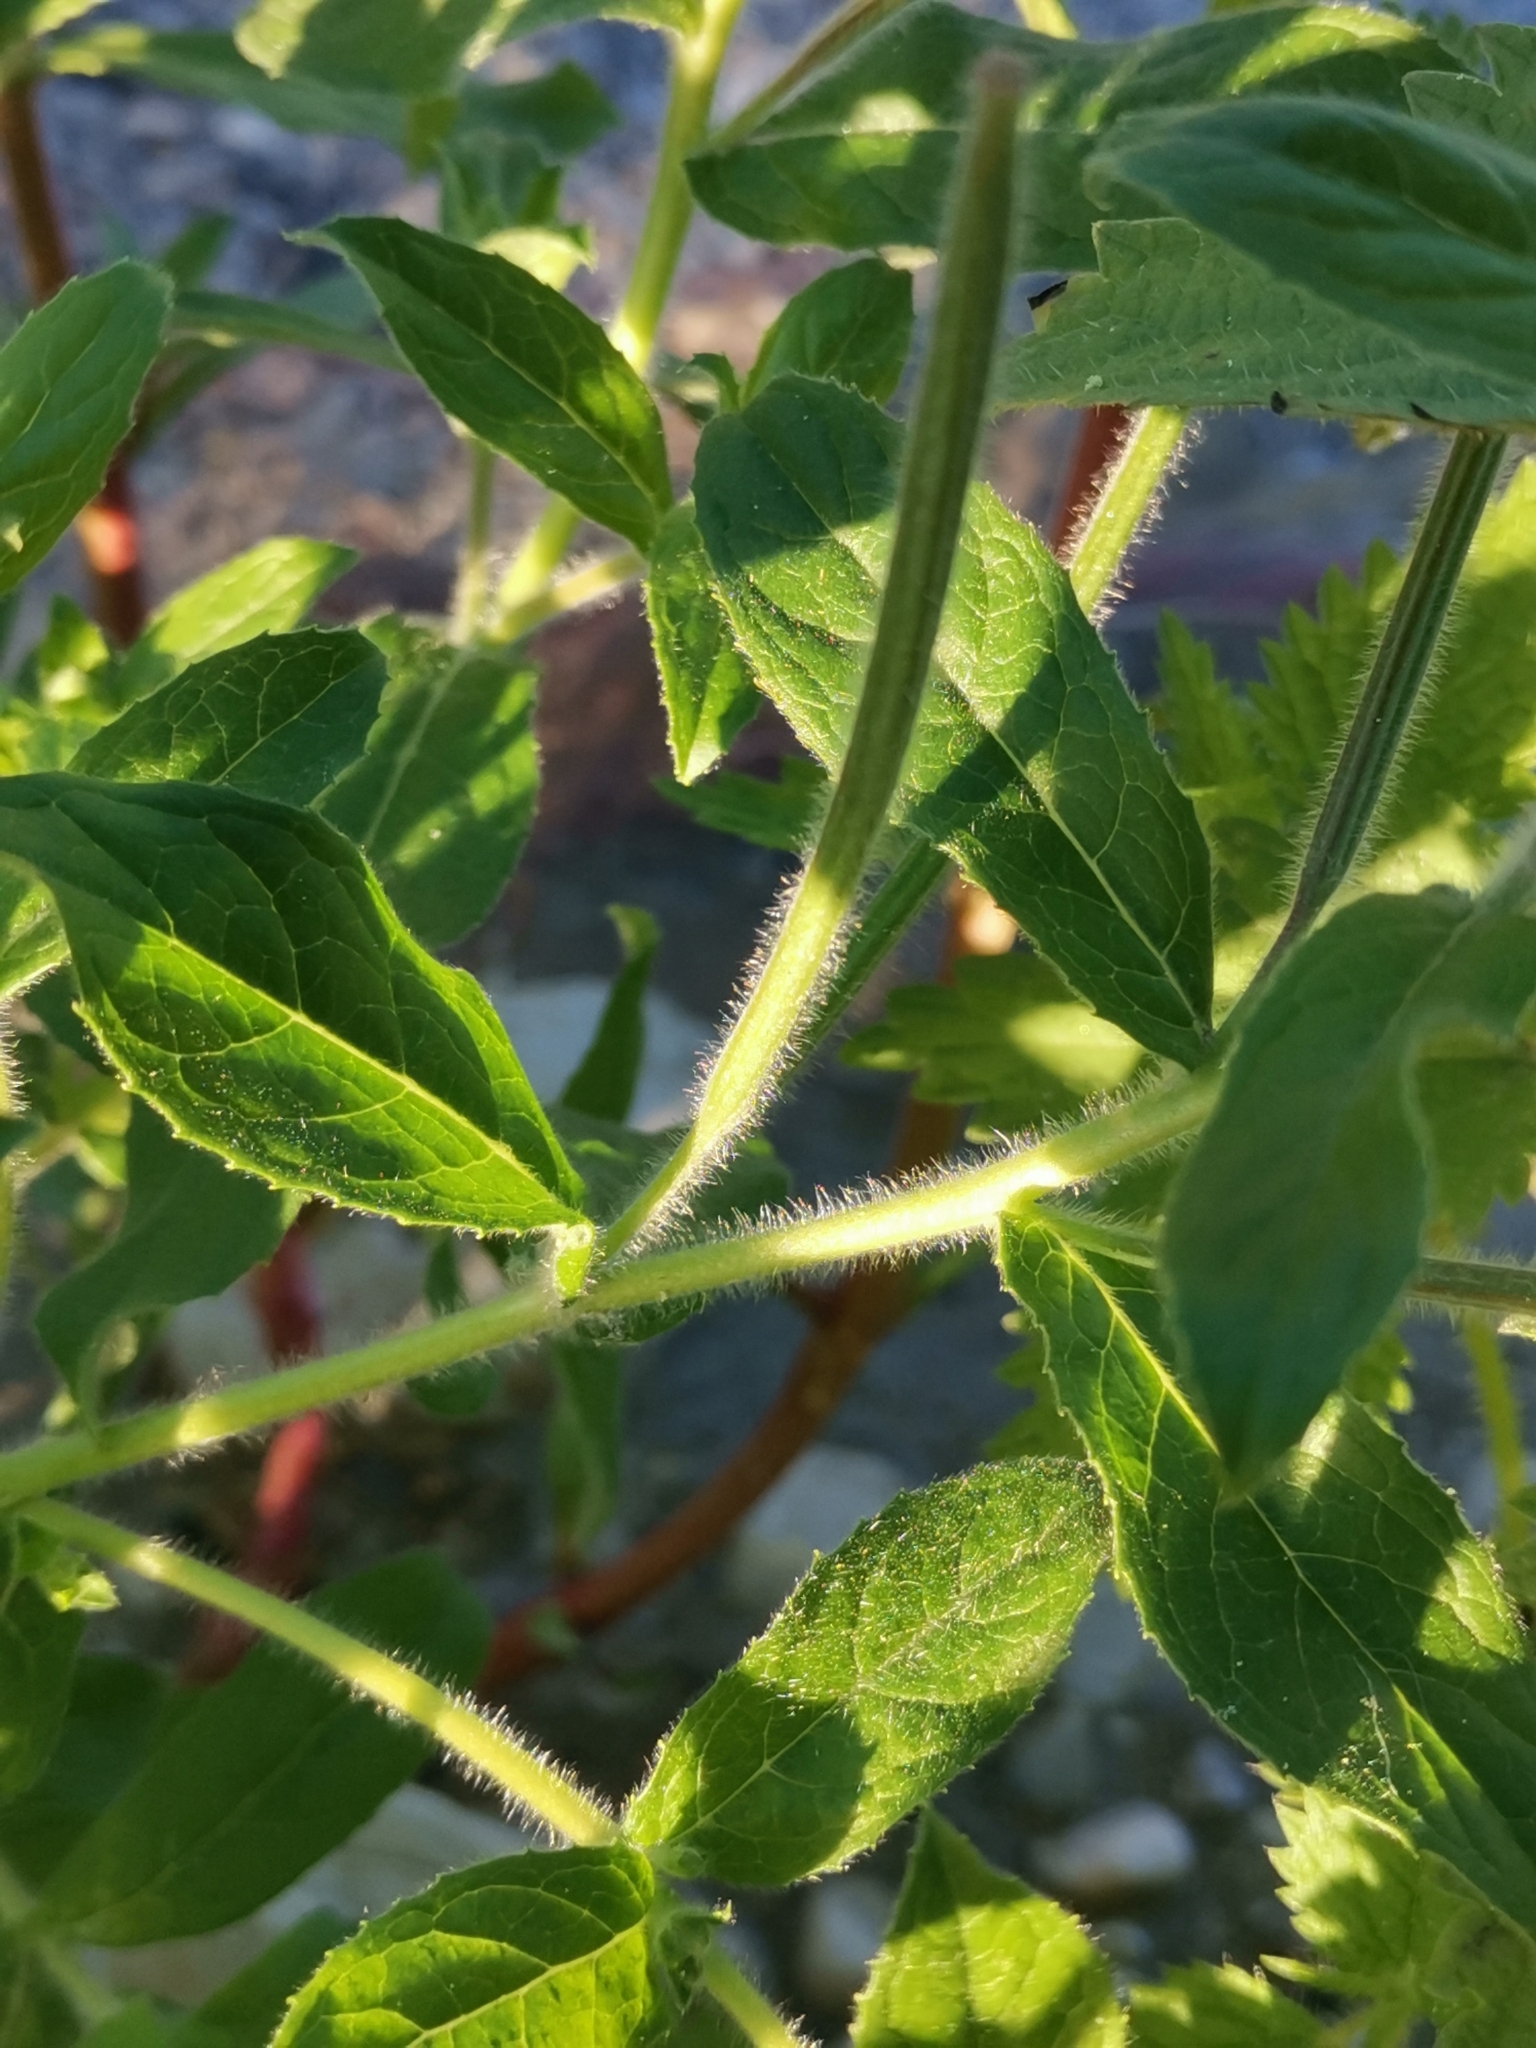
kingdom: Plantae
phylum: Tracheophyta
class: Magnoliopsida
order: Myrtales
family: Onagraceae
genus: Epilobium
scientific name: Epilobium hirsutum
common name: Great willowherb
